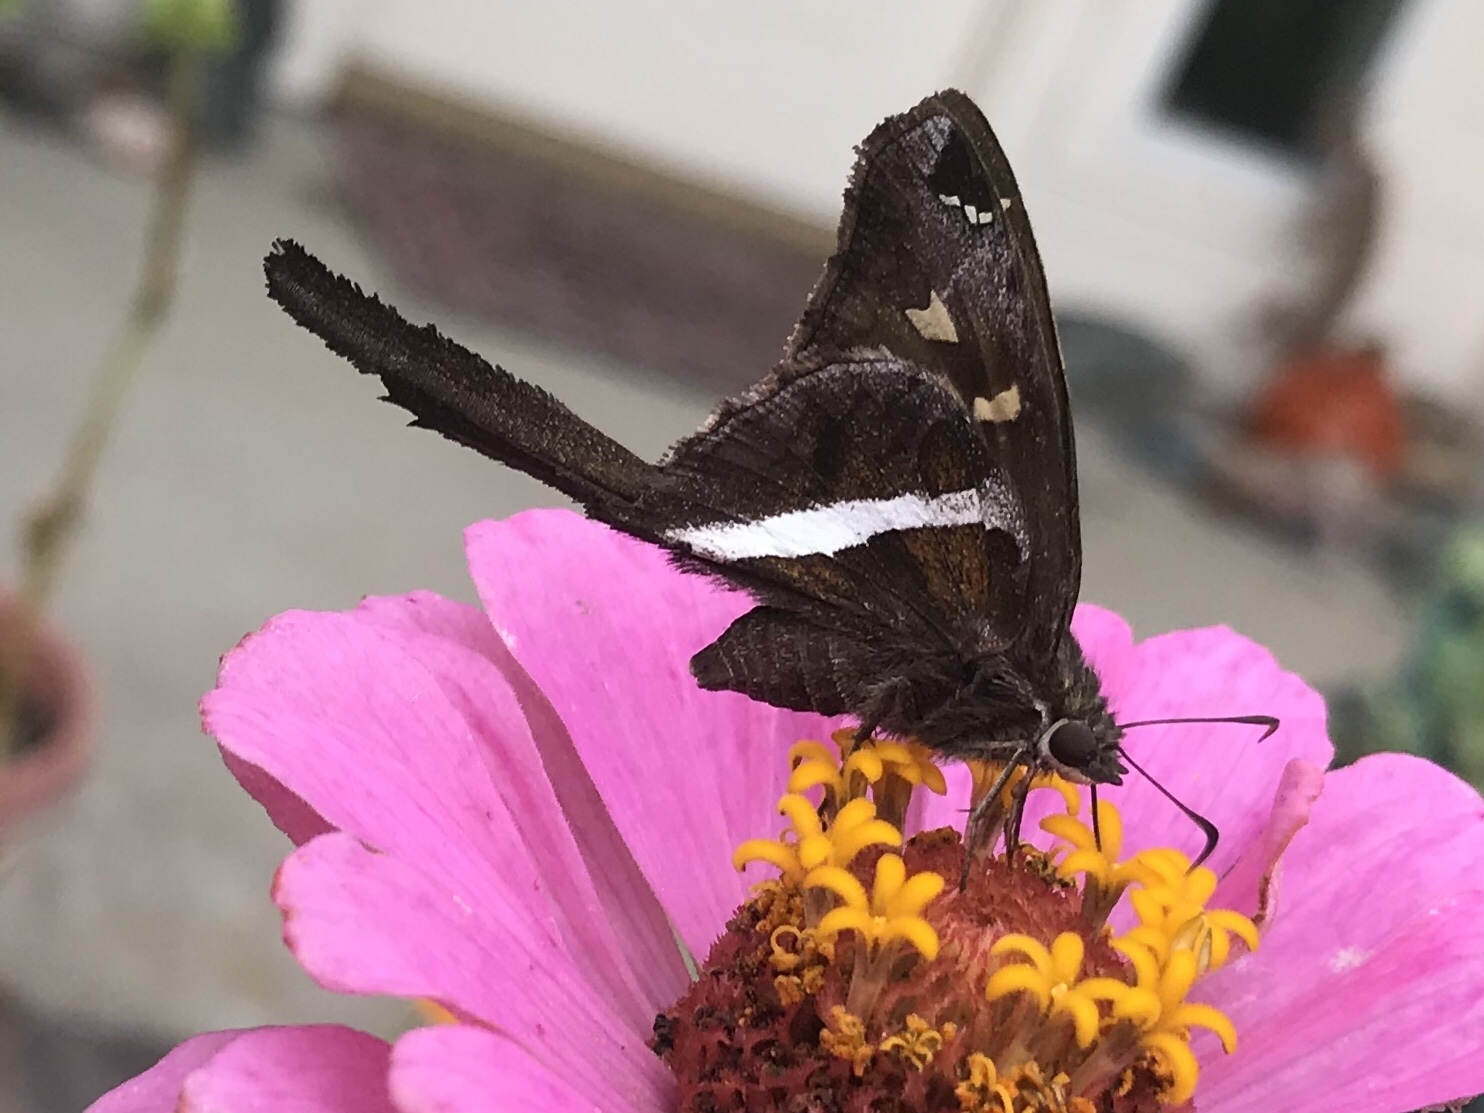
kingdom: Animalia
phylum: Arthropoda
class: Insecta
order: Lepidoptera
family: Hesperiidae
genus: Chioides
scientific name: Chioides catillus
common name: Silverbanded skipper
